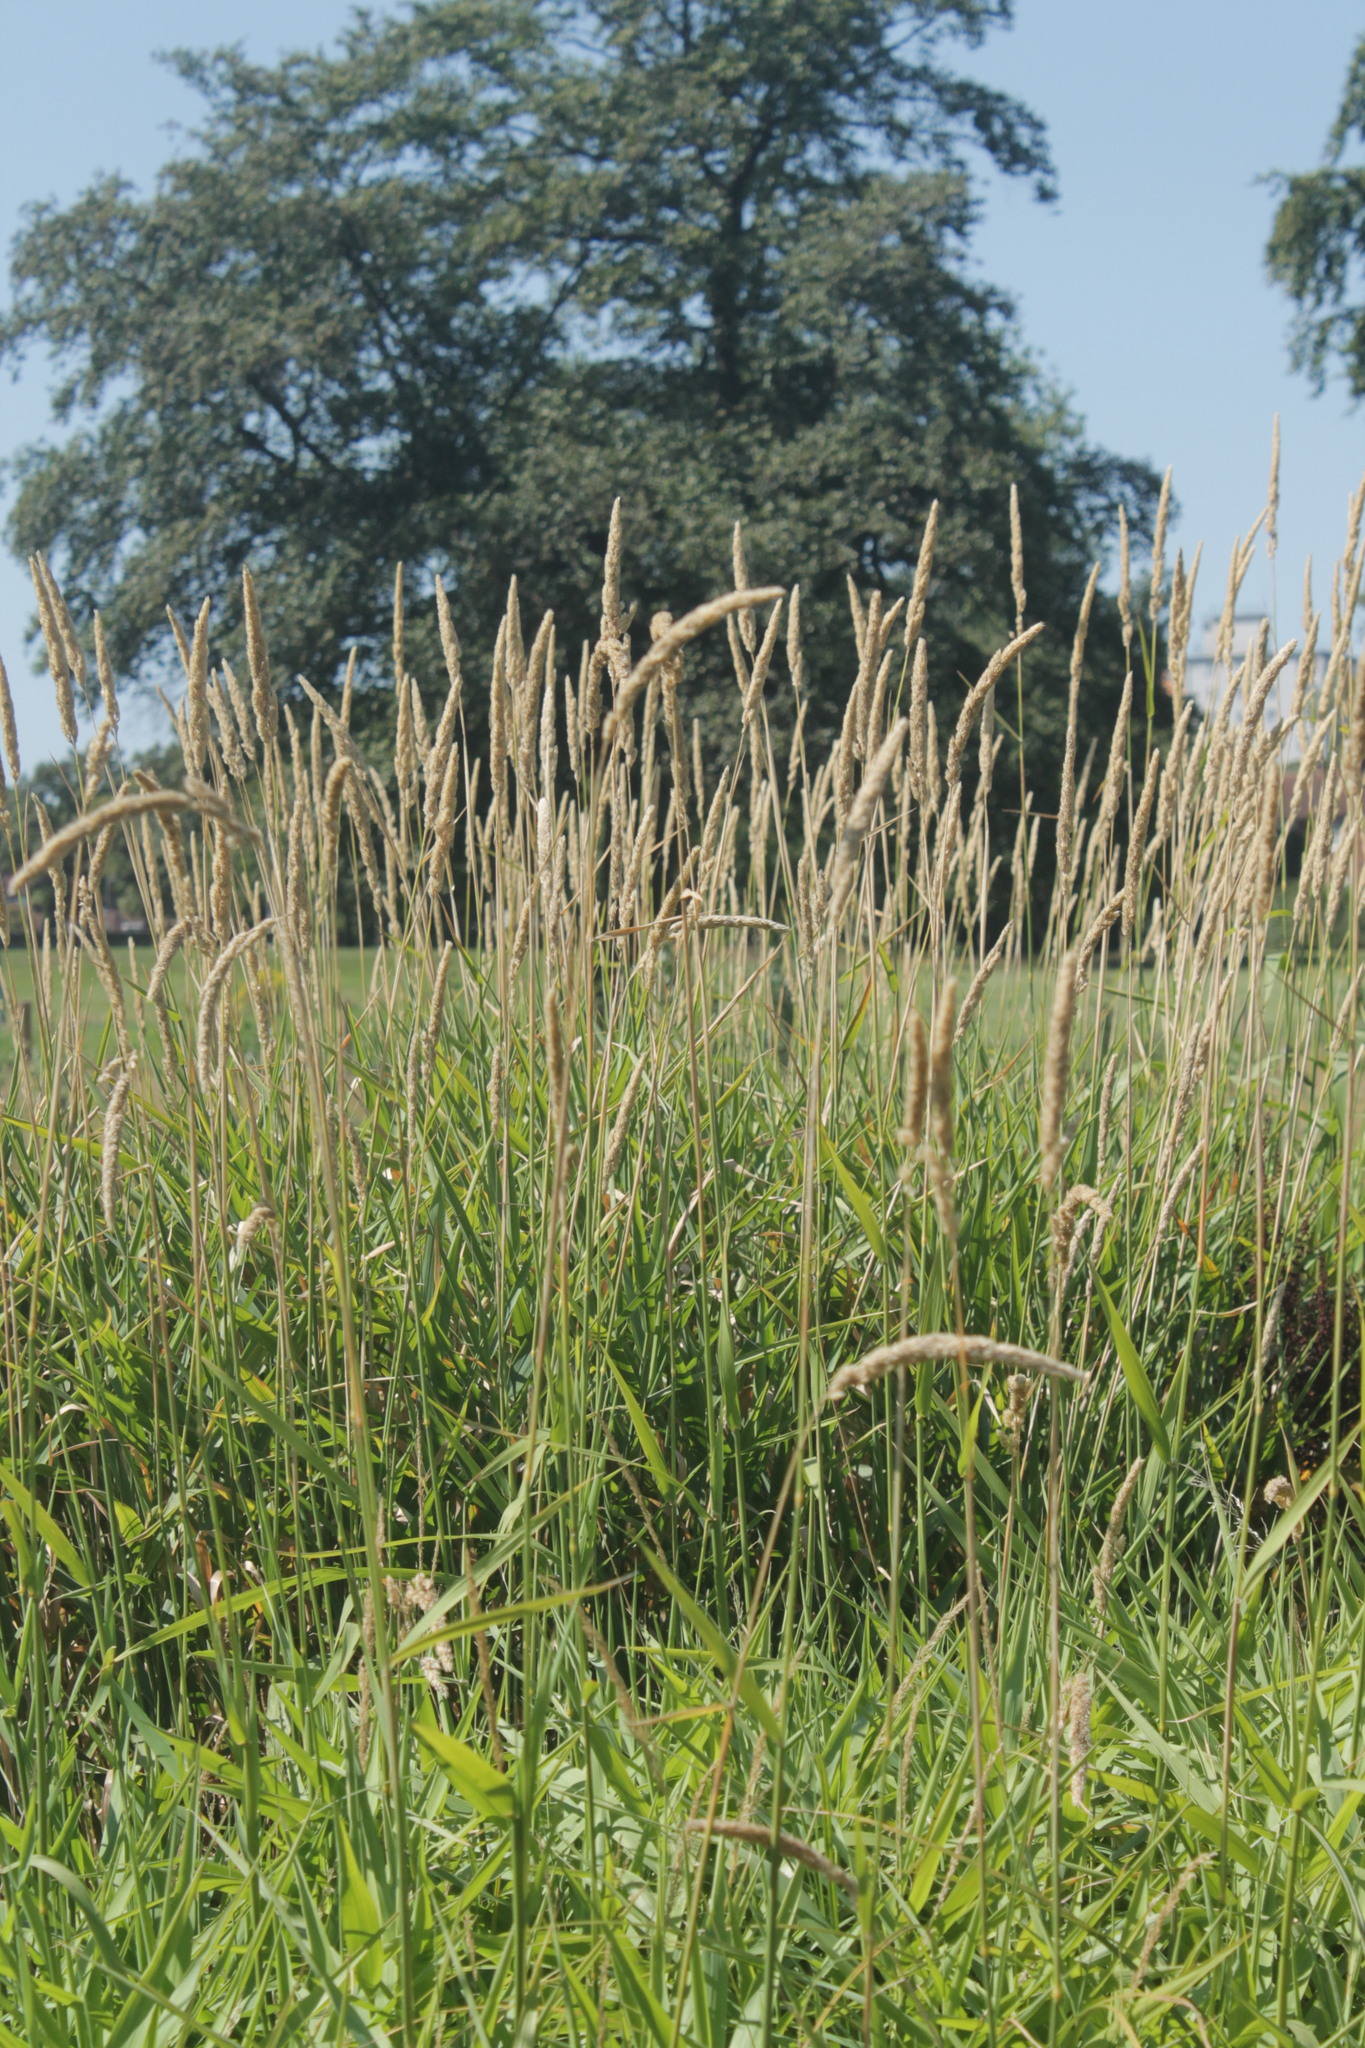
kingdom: Plantae
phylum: Tracheophyta
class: Liliopsida
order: Poales
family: Poaceae
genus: Phalaris
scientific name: Phalaris arundinacea
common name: Reed canary-grass
